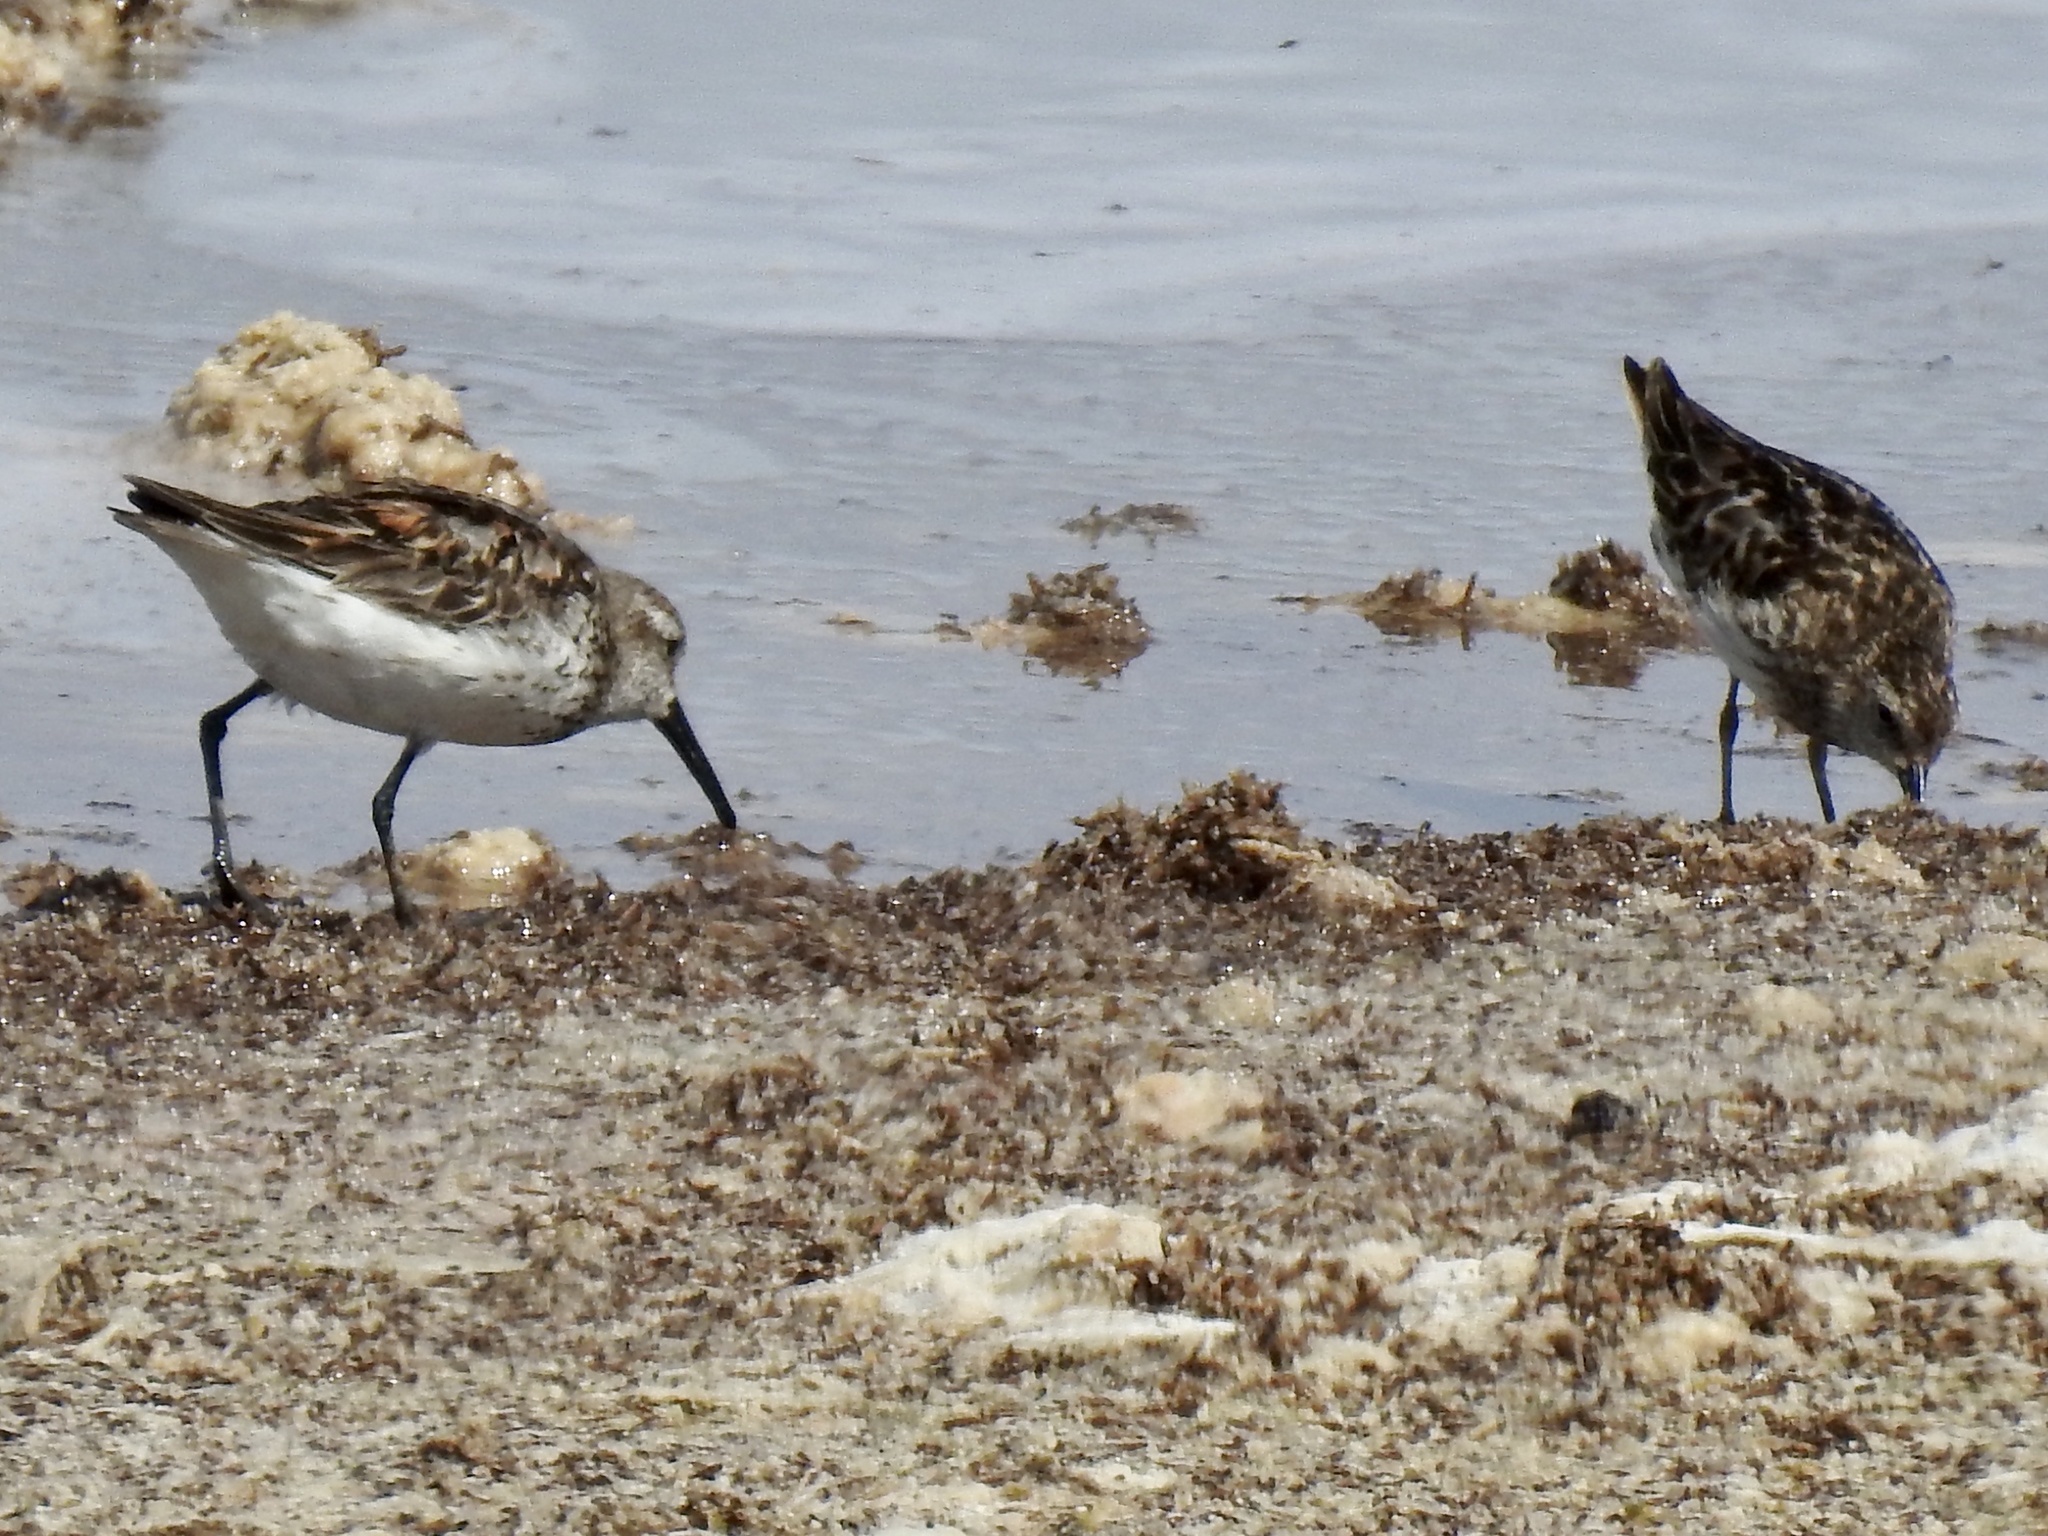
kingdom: Animalia
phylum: Chordata
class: Aves
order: Charadriiformes
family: Scolopacidae
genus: Calidris
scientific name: Calidris mauri
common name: Western sandpiper
